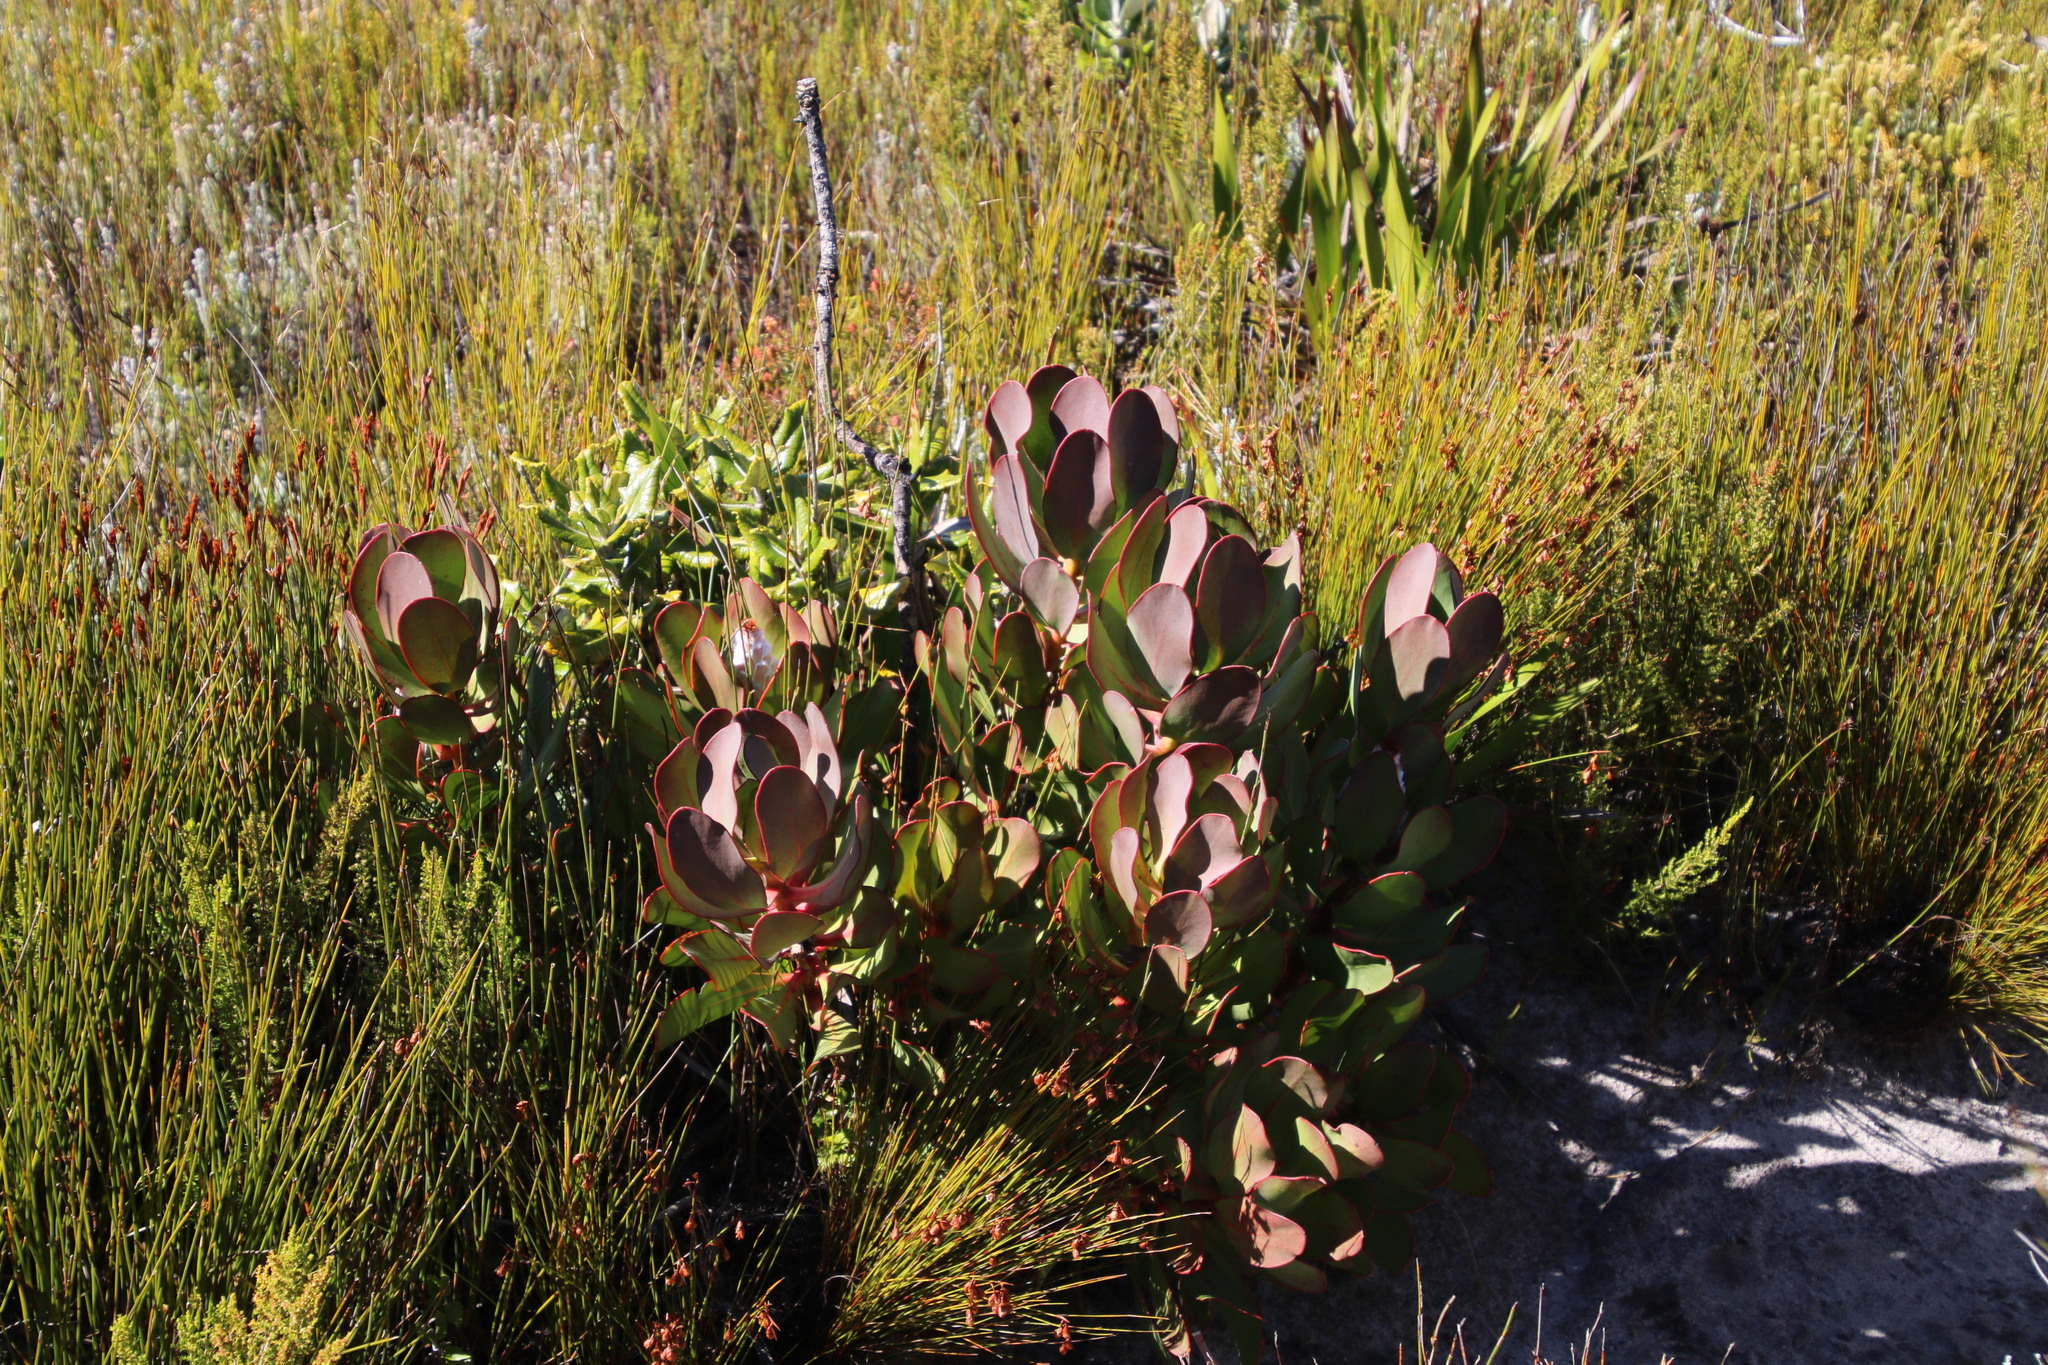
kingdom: Plantae
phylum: Tracheophyta
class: Magnoliopsida
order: Proteales
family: Proteaceae
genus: Protea
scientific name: Protea speciosa
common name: Brown-beard sugarbush
